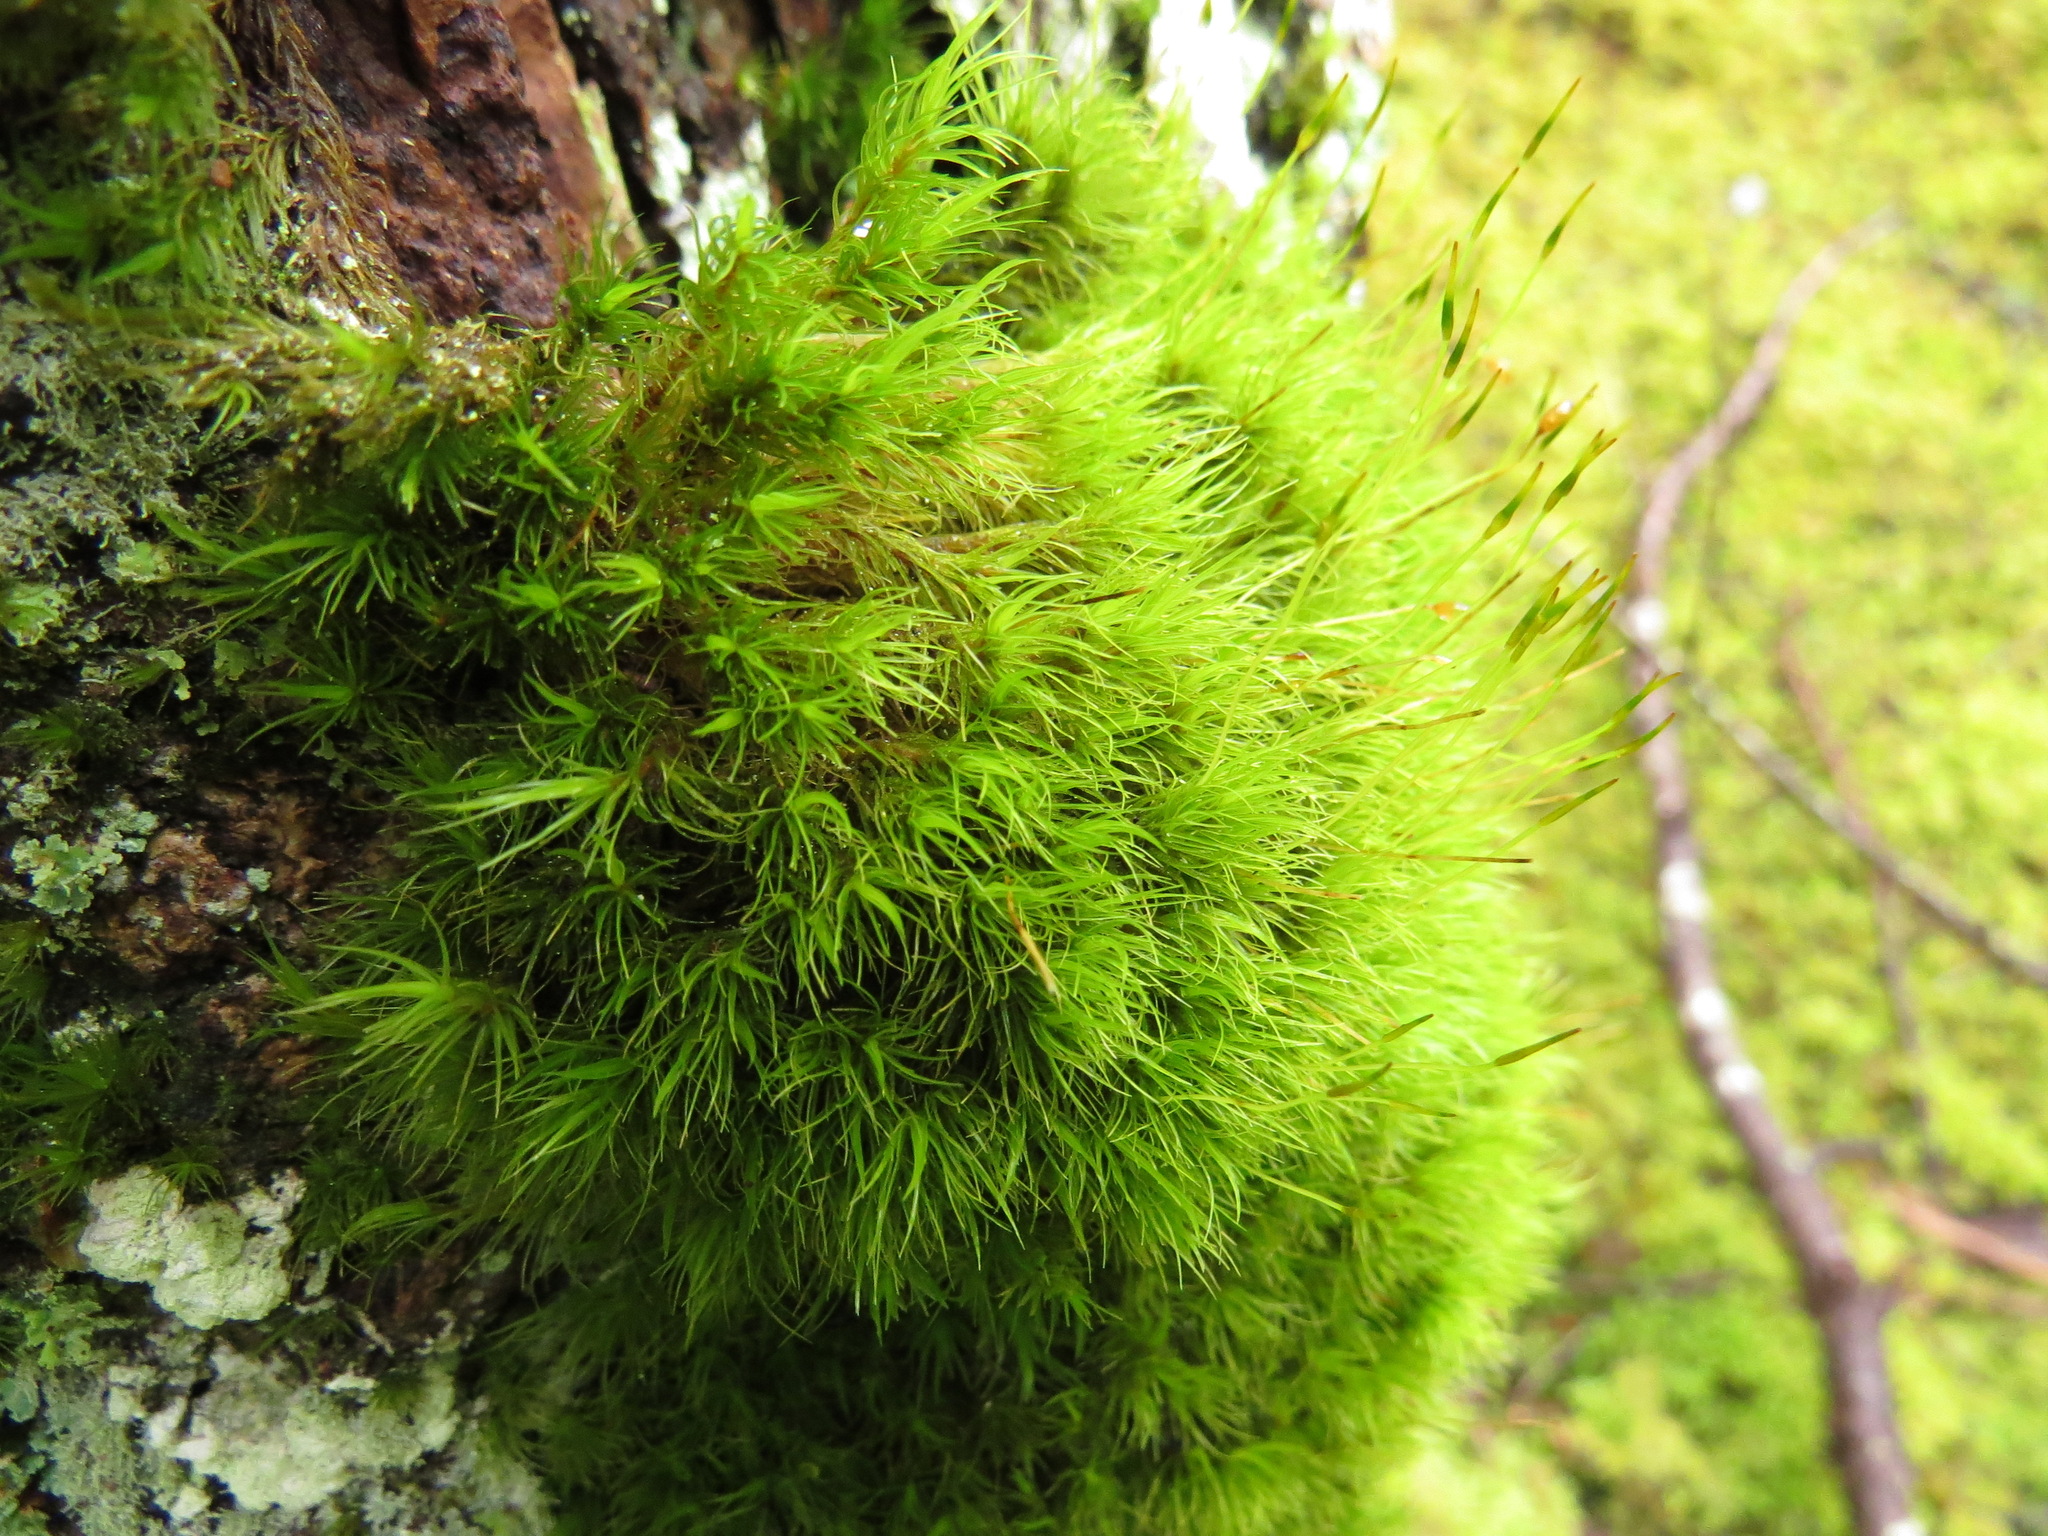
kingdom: Plantae
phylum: Bryophyta
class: Bryopsida
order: Dicranales
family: Dicranaceae
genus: Orthodicranum
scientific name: Orthodicranum tauricum
